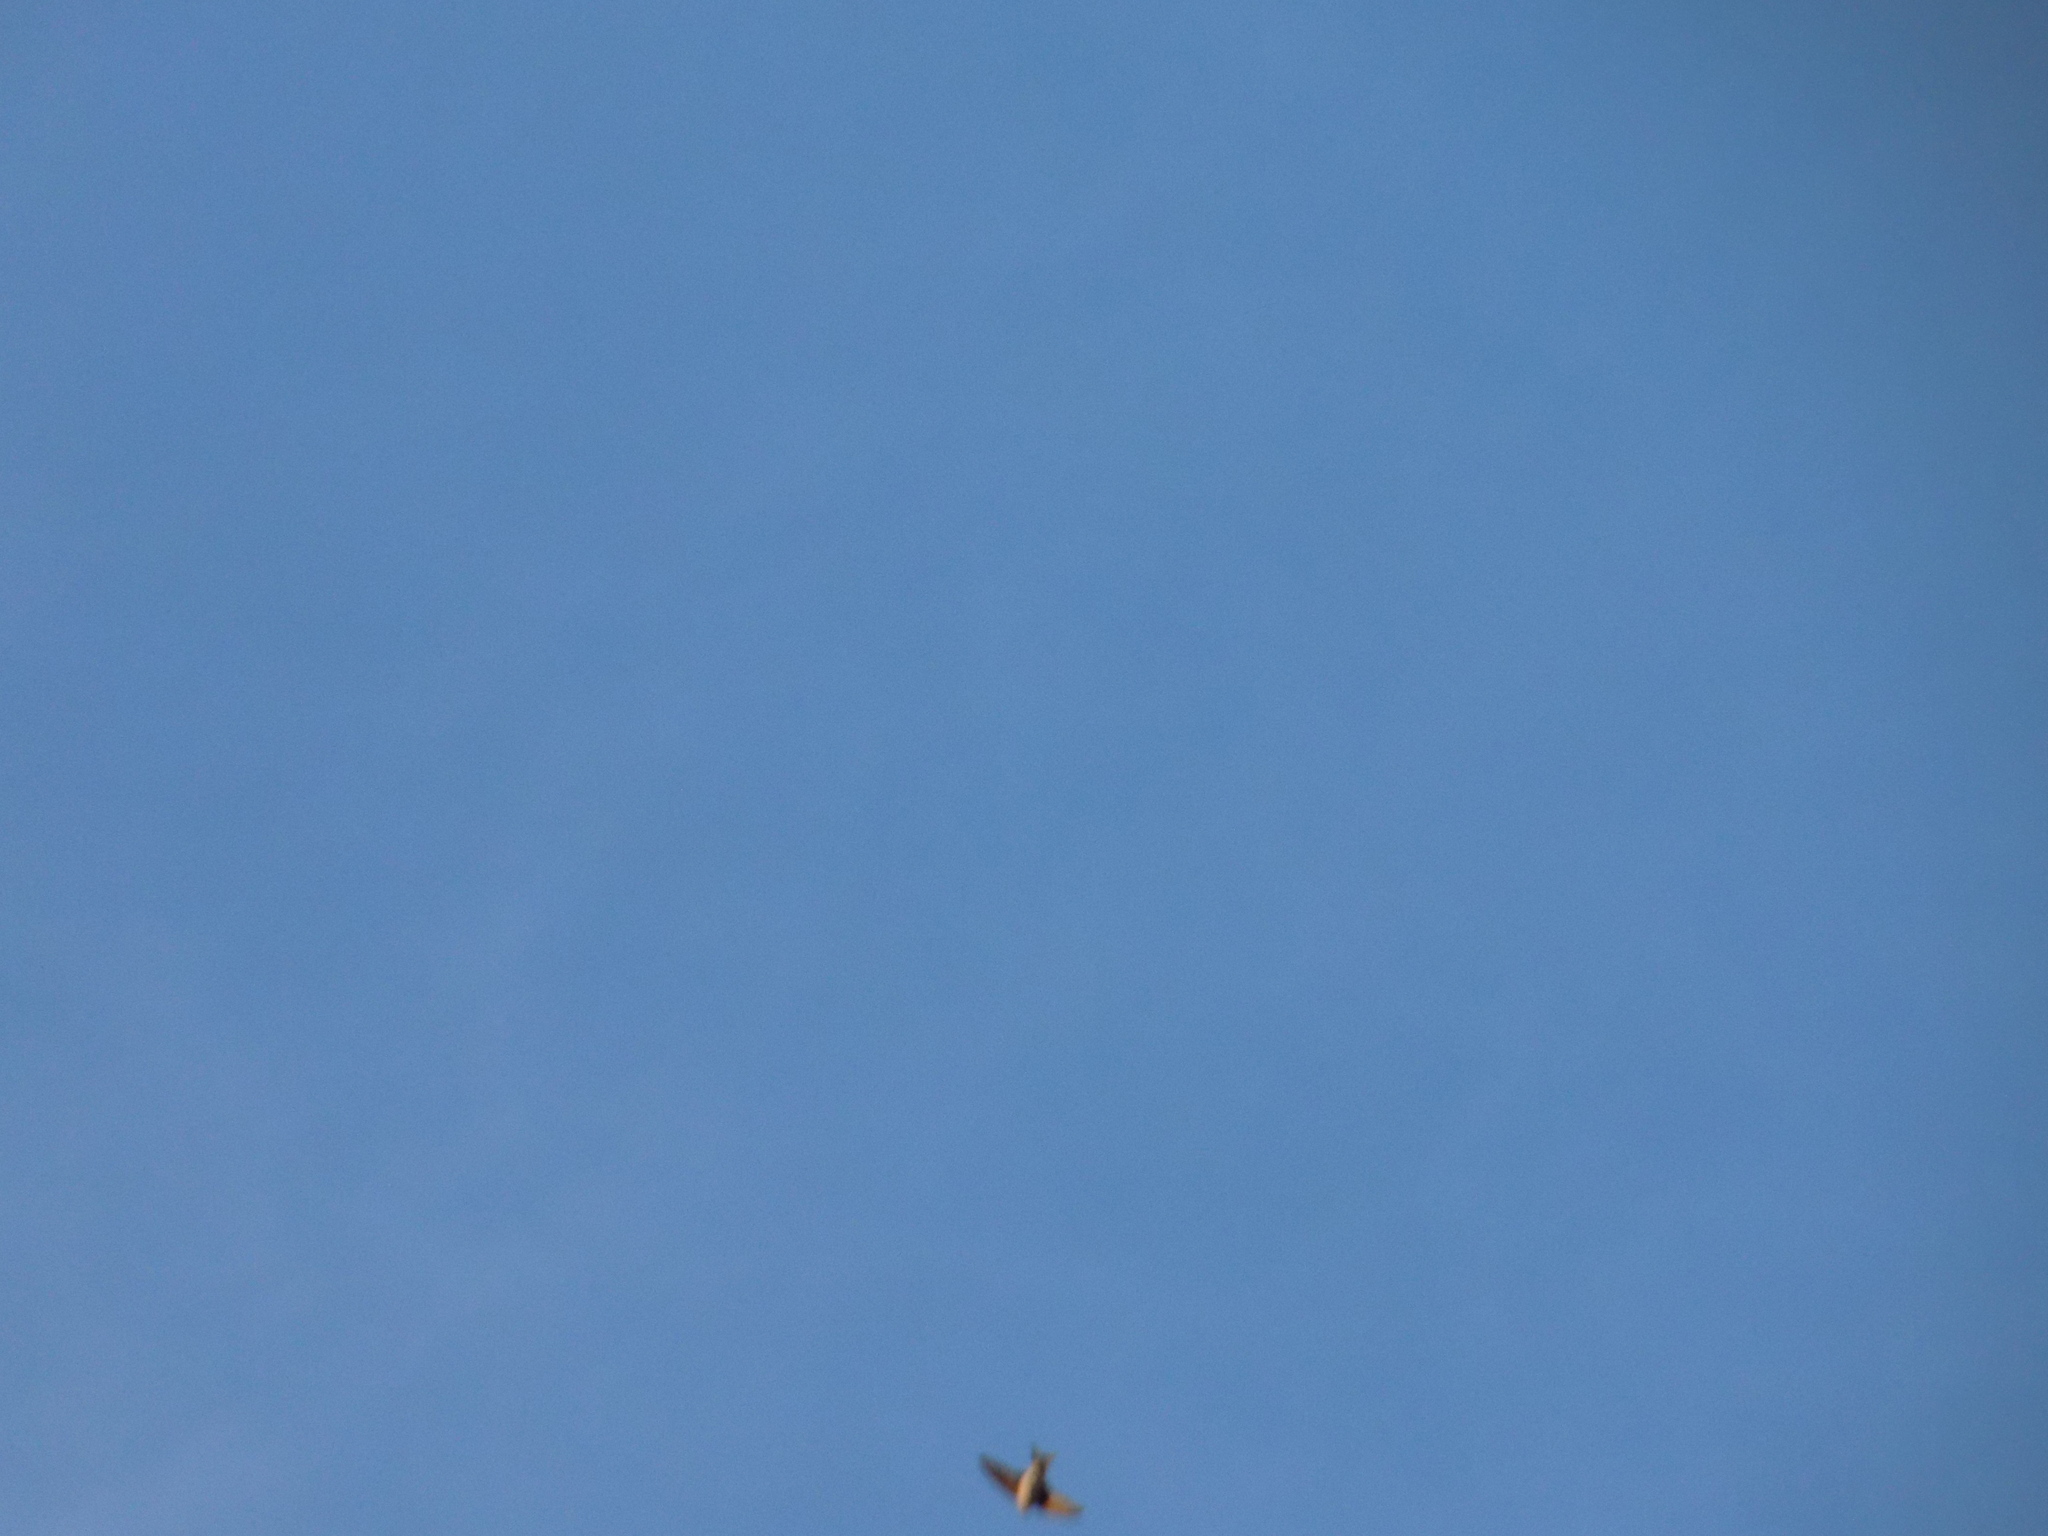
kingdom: Animalia
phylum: Chordata
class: Aves
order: Passeriformes
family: Hirundinidae
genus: Delichon
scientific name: Delichon urbicum
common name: Common house martin
